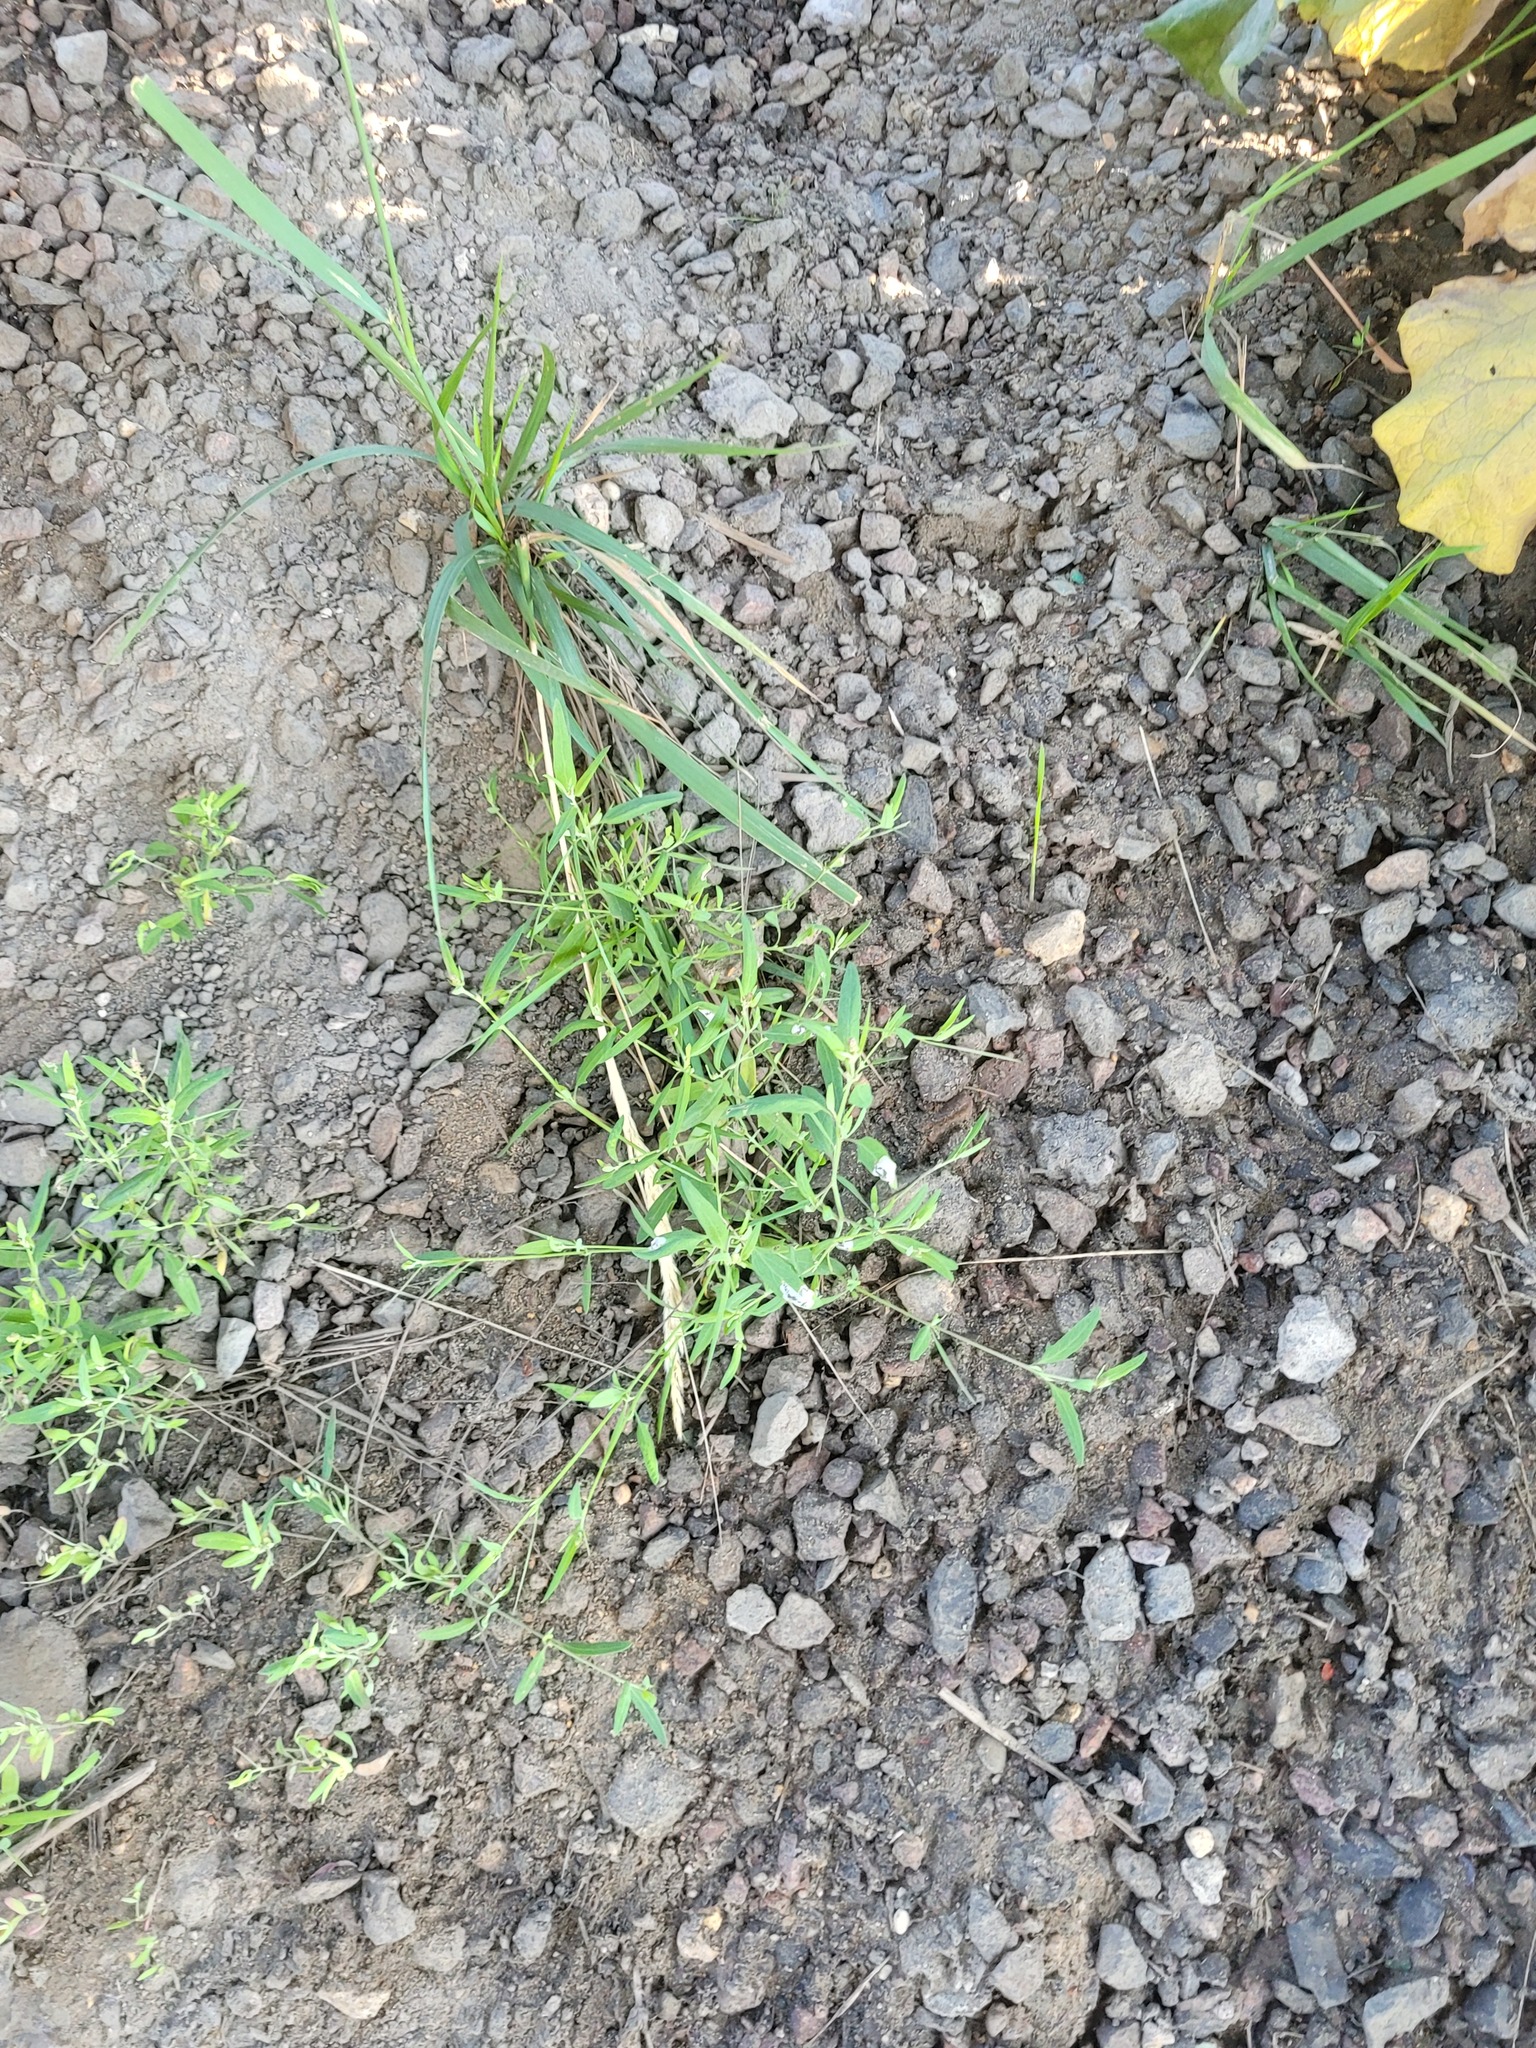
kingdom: Plantae
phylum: Tracheophyta
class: Magnoliopsida
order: Caryophyllales
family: Amaranthaceae
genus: Atriplex
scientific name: Atriplex patula
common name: Common orache
